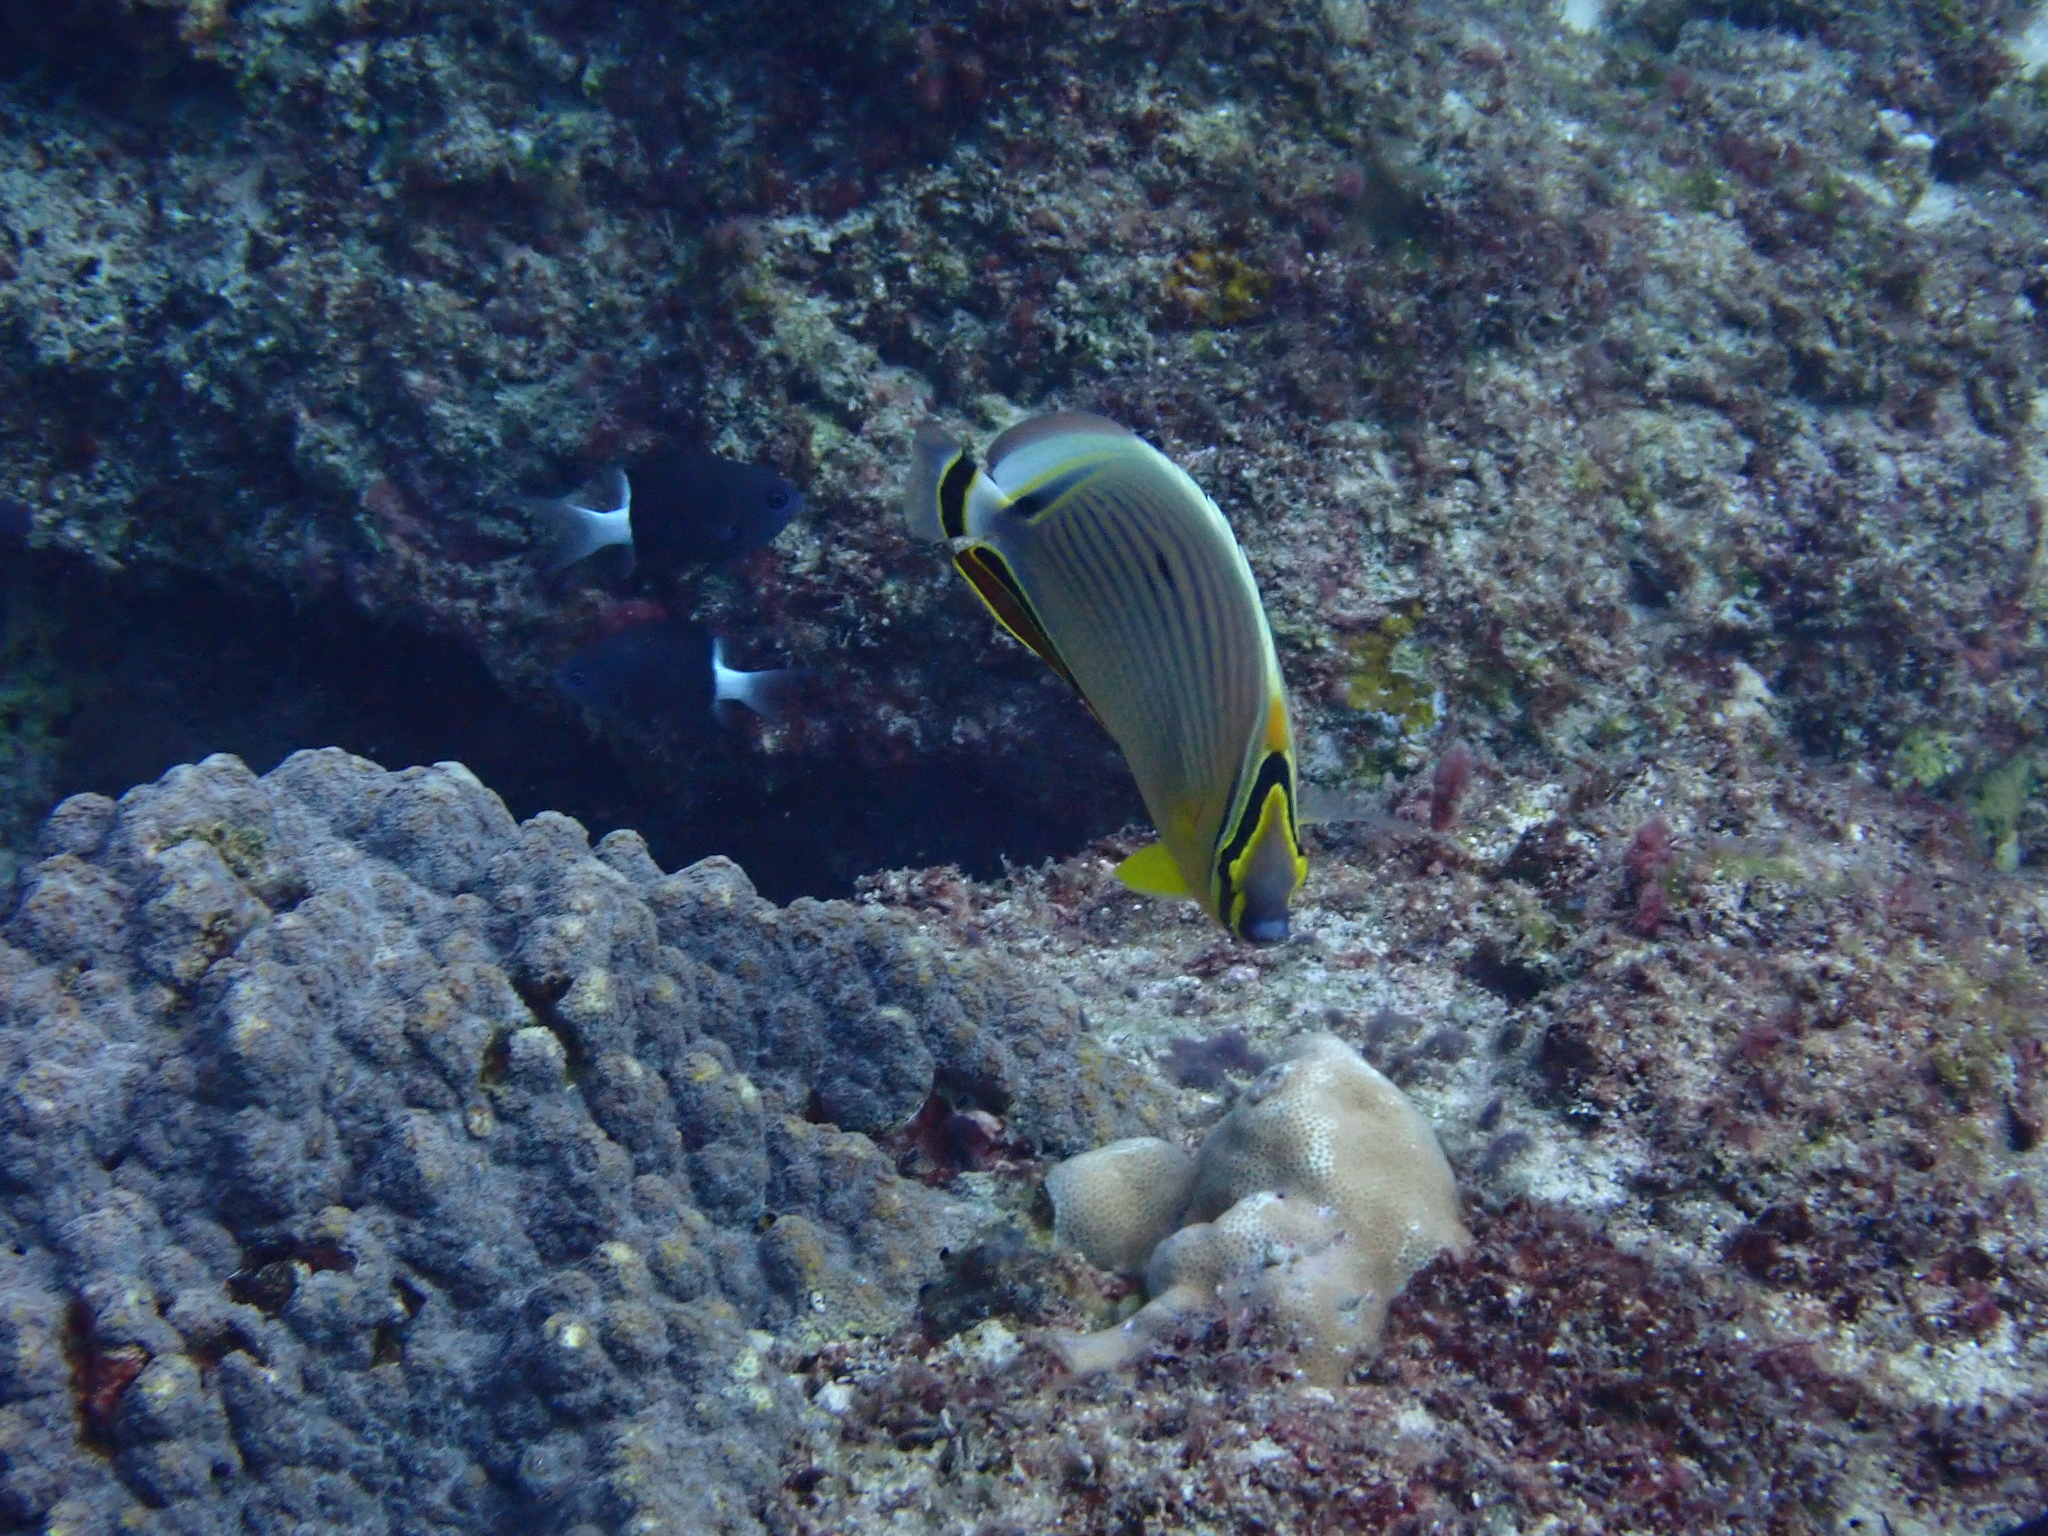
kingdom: Animalia
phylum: Chordata
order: Perciformes
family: Chaetodontidae
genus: Chaetodon
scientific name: Chaetodon lunulatus
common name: Redfin butterflyfish
